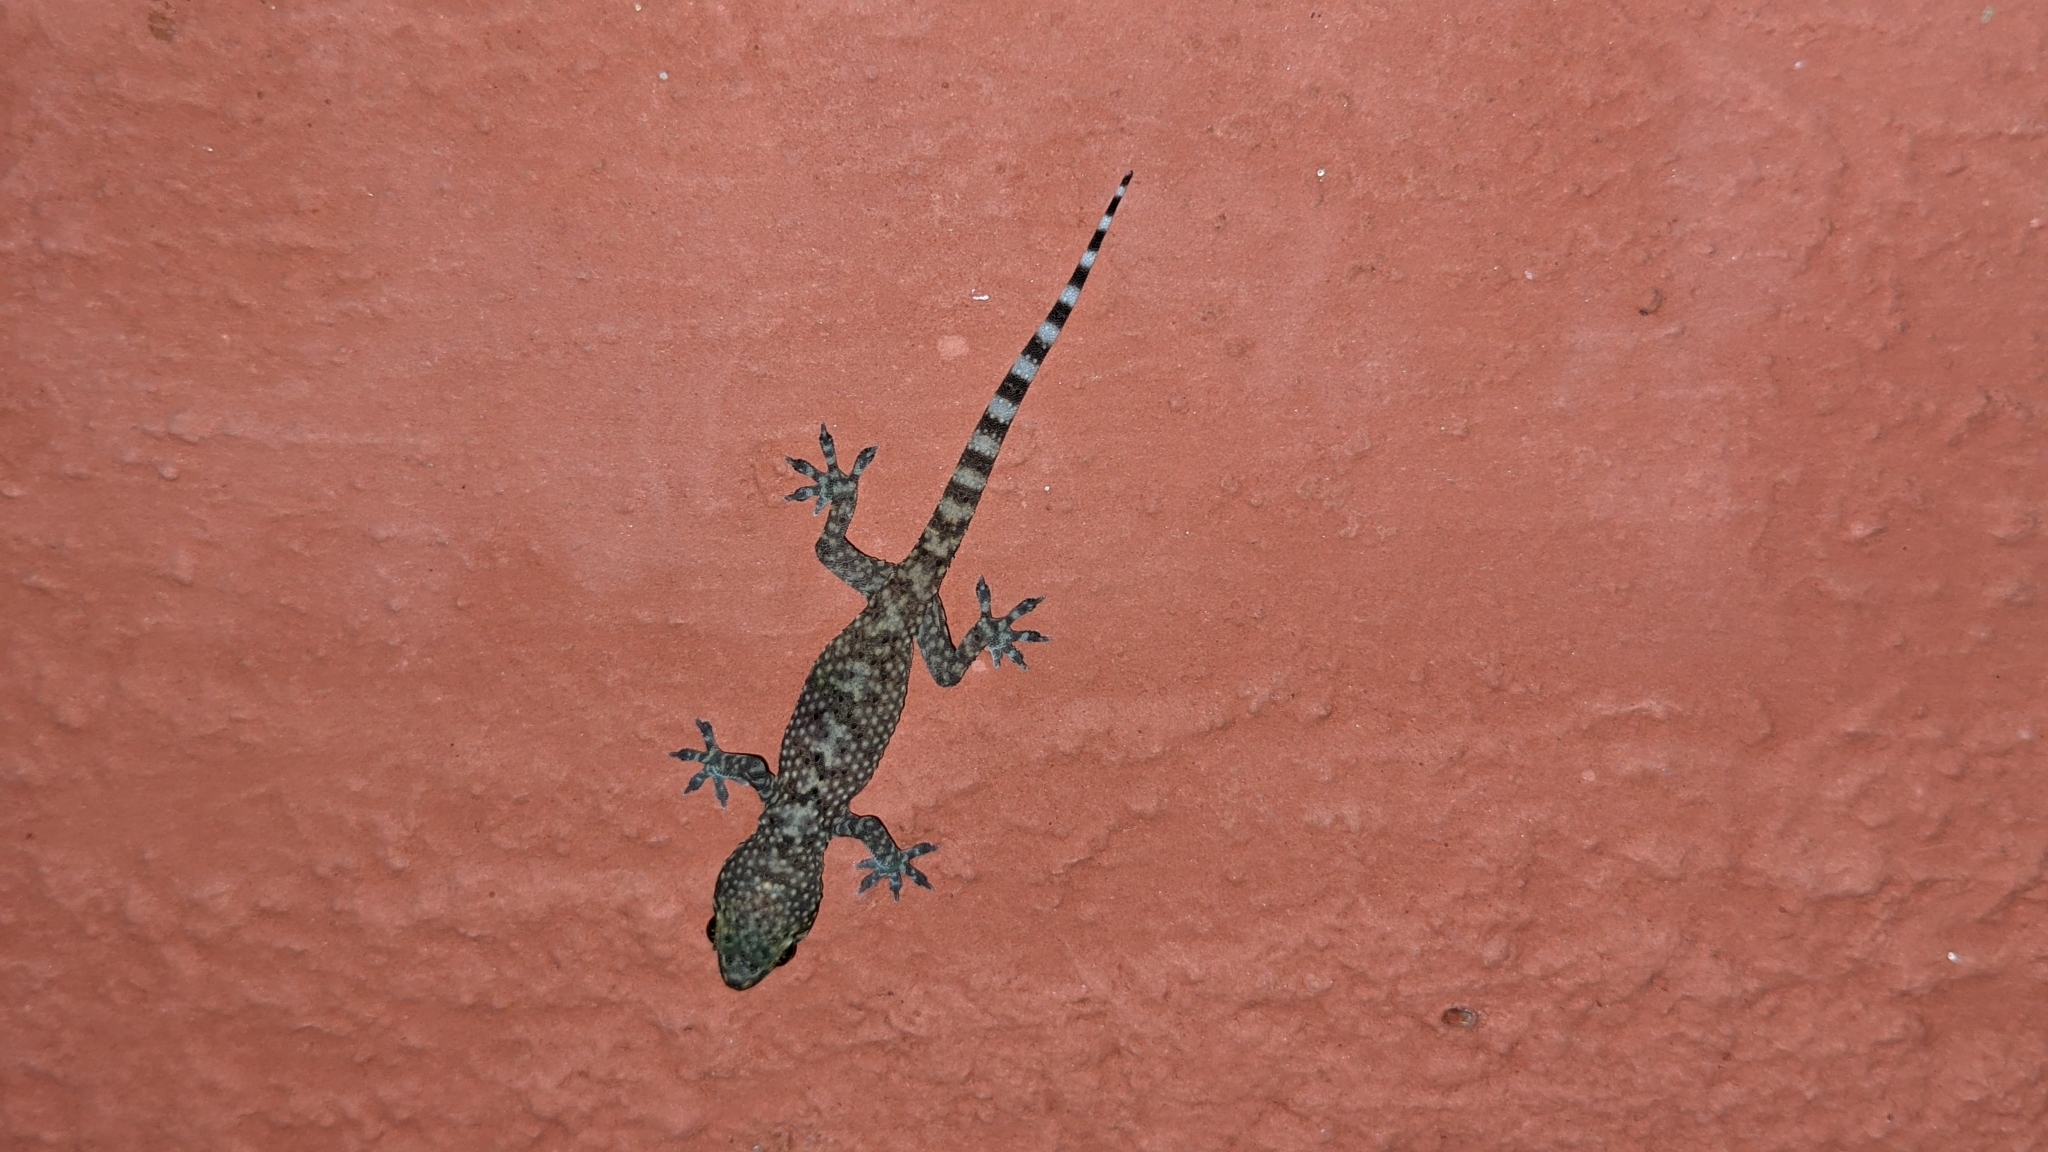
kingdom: Animalia
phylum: Chordata
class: Squamata
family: Gekkonidae
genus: Hemidactylus
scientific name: Hemidactylus turcicus
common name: Turkish gecko
